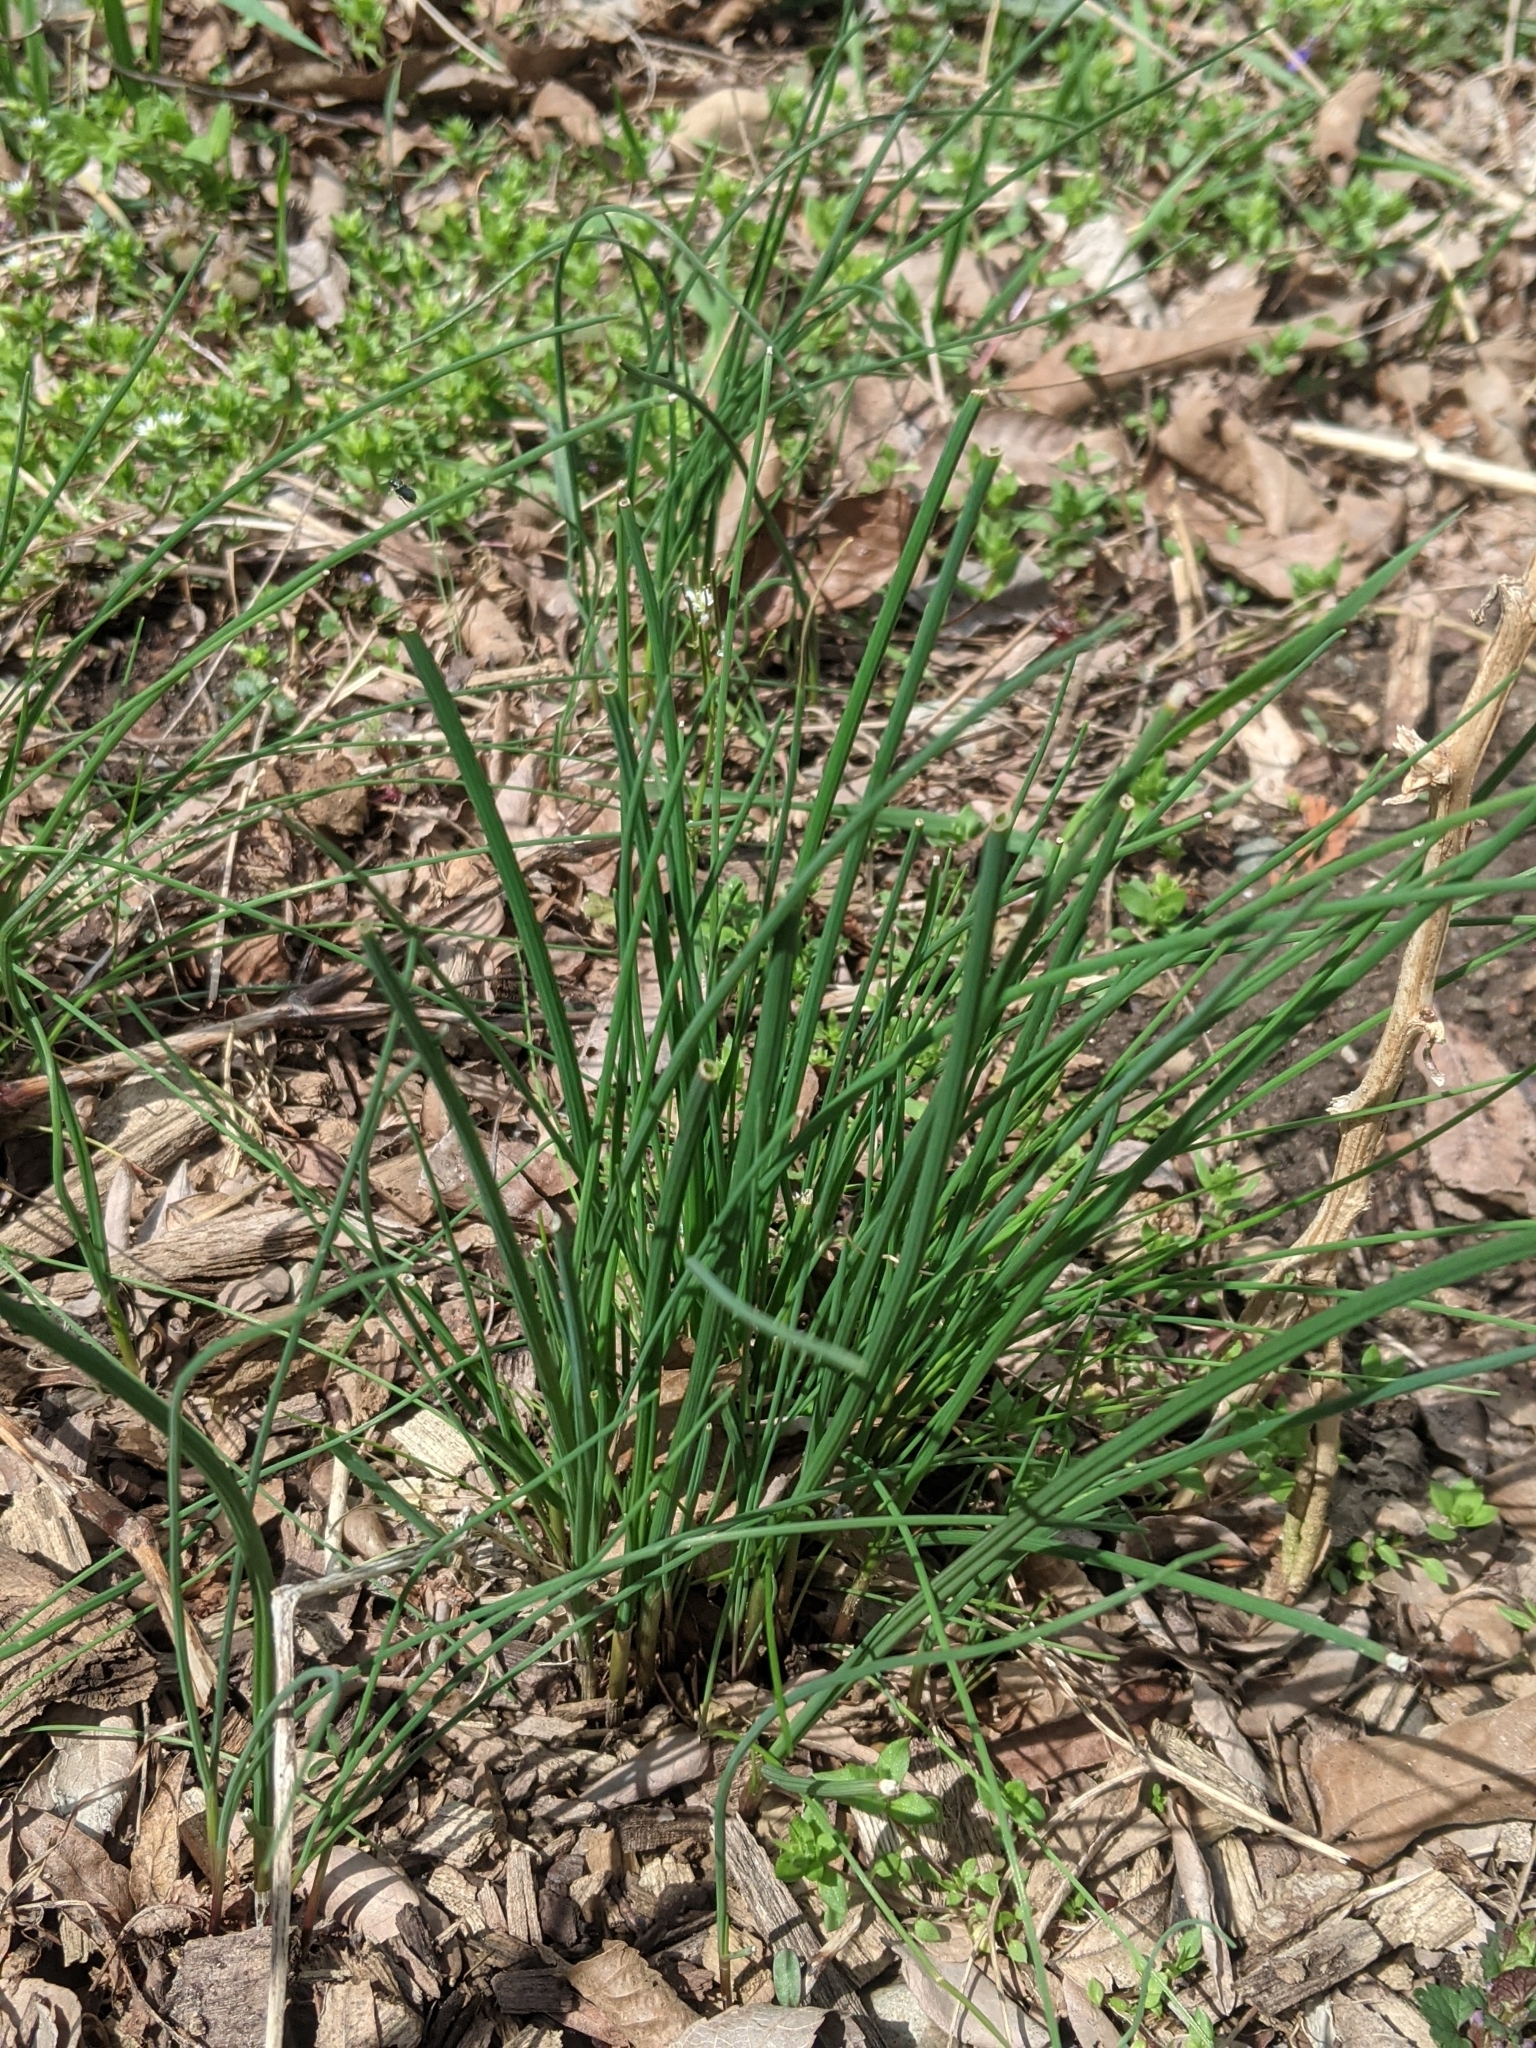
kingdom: Plantae
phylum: Tracheophyta
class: Liliopsida
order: Asparagales
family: Amaryllidaceae
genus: Allium
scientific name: Allium vineale
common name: Crow garlic
